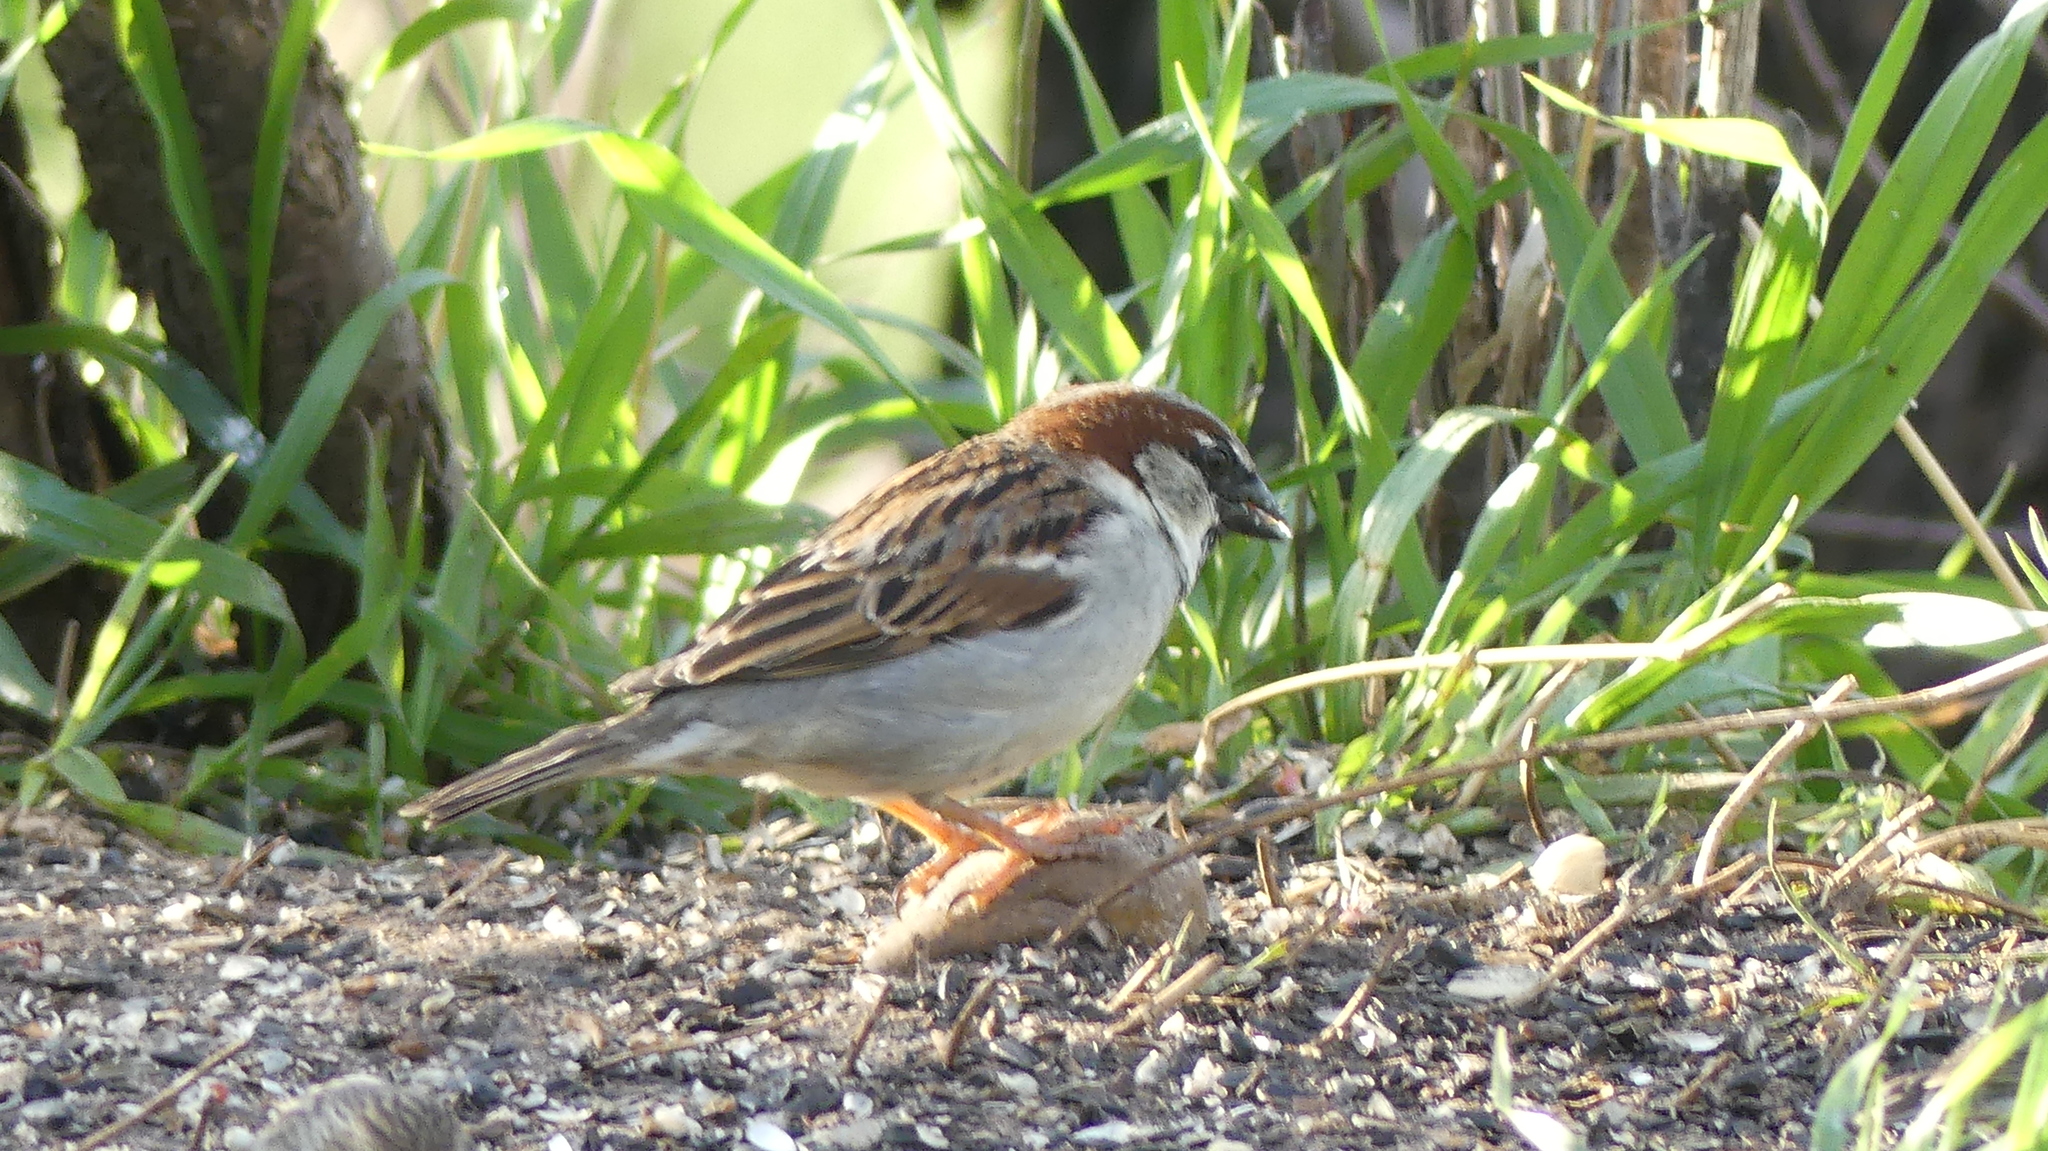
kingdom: Animalia
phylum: Chordata
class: Aves
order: Passeriformes
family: Passeridae
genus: Passer
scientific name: Passer domesticus
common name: House sparrow
